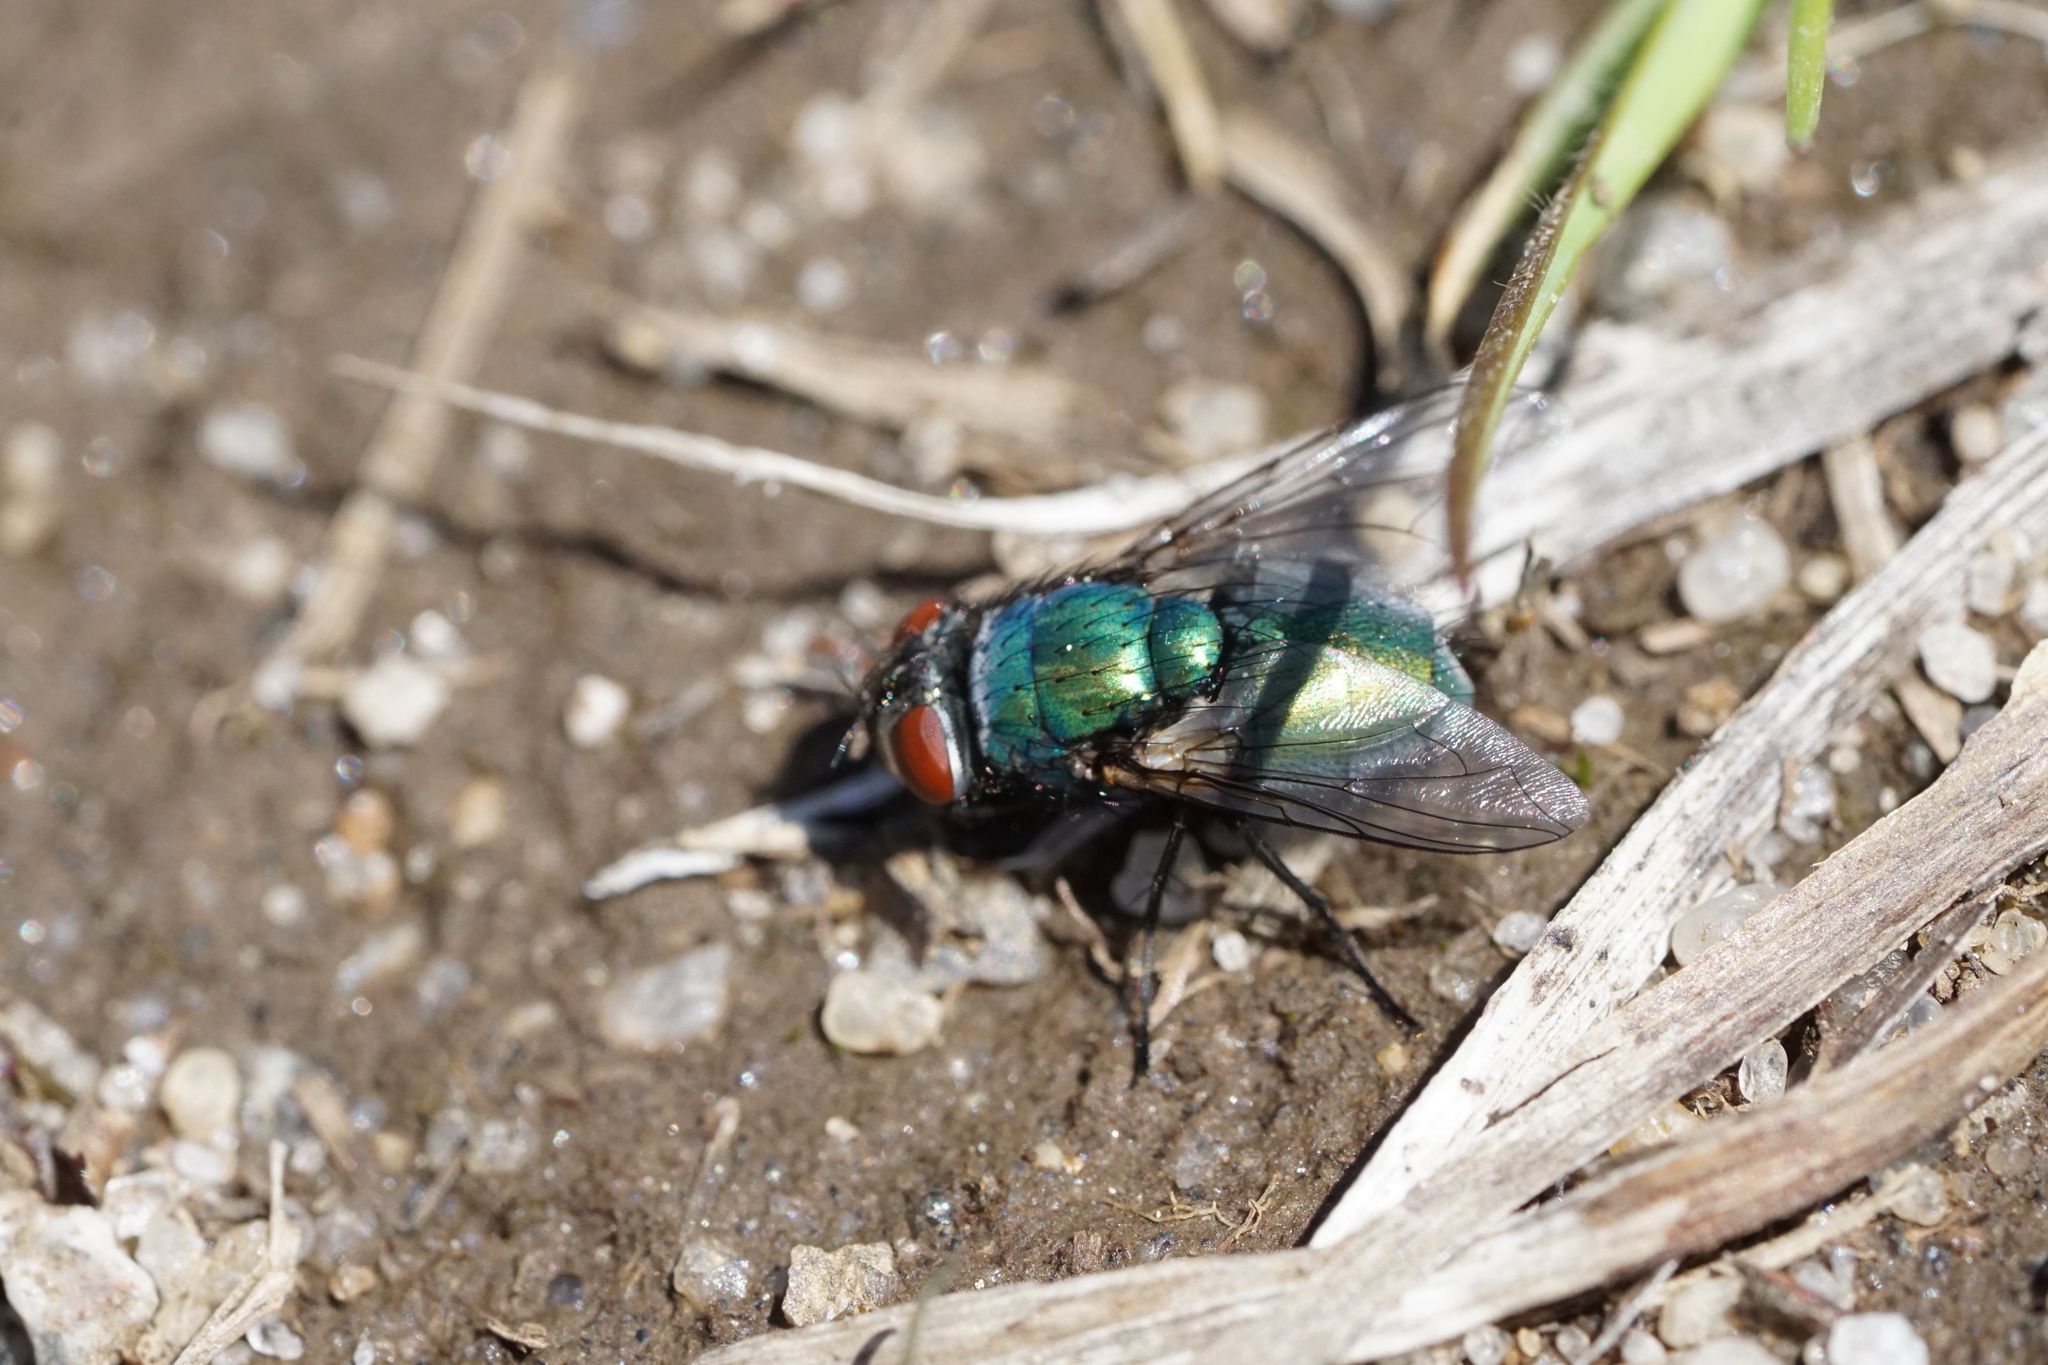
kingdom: Animalia
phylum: Arthropoda
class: Insecta
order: Diptera
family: Calliphoridae
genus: Lucilia
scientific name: Lucilia sericata
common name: Blow fly
